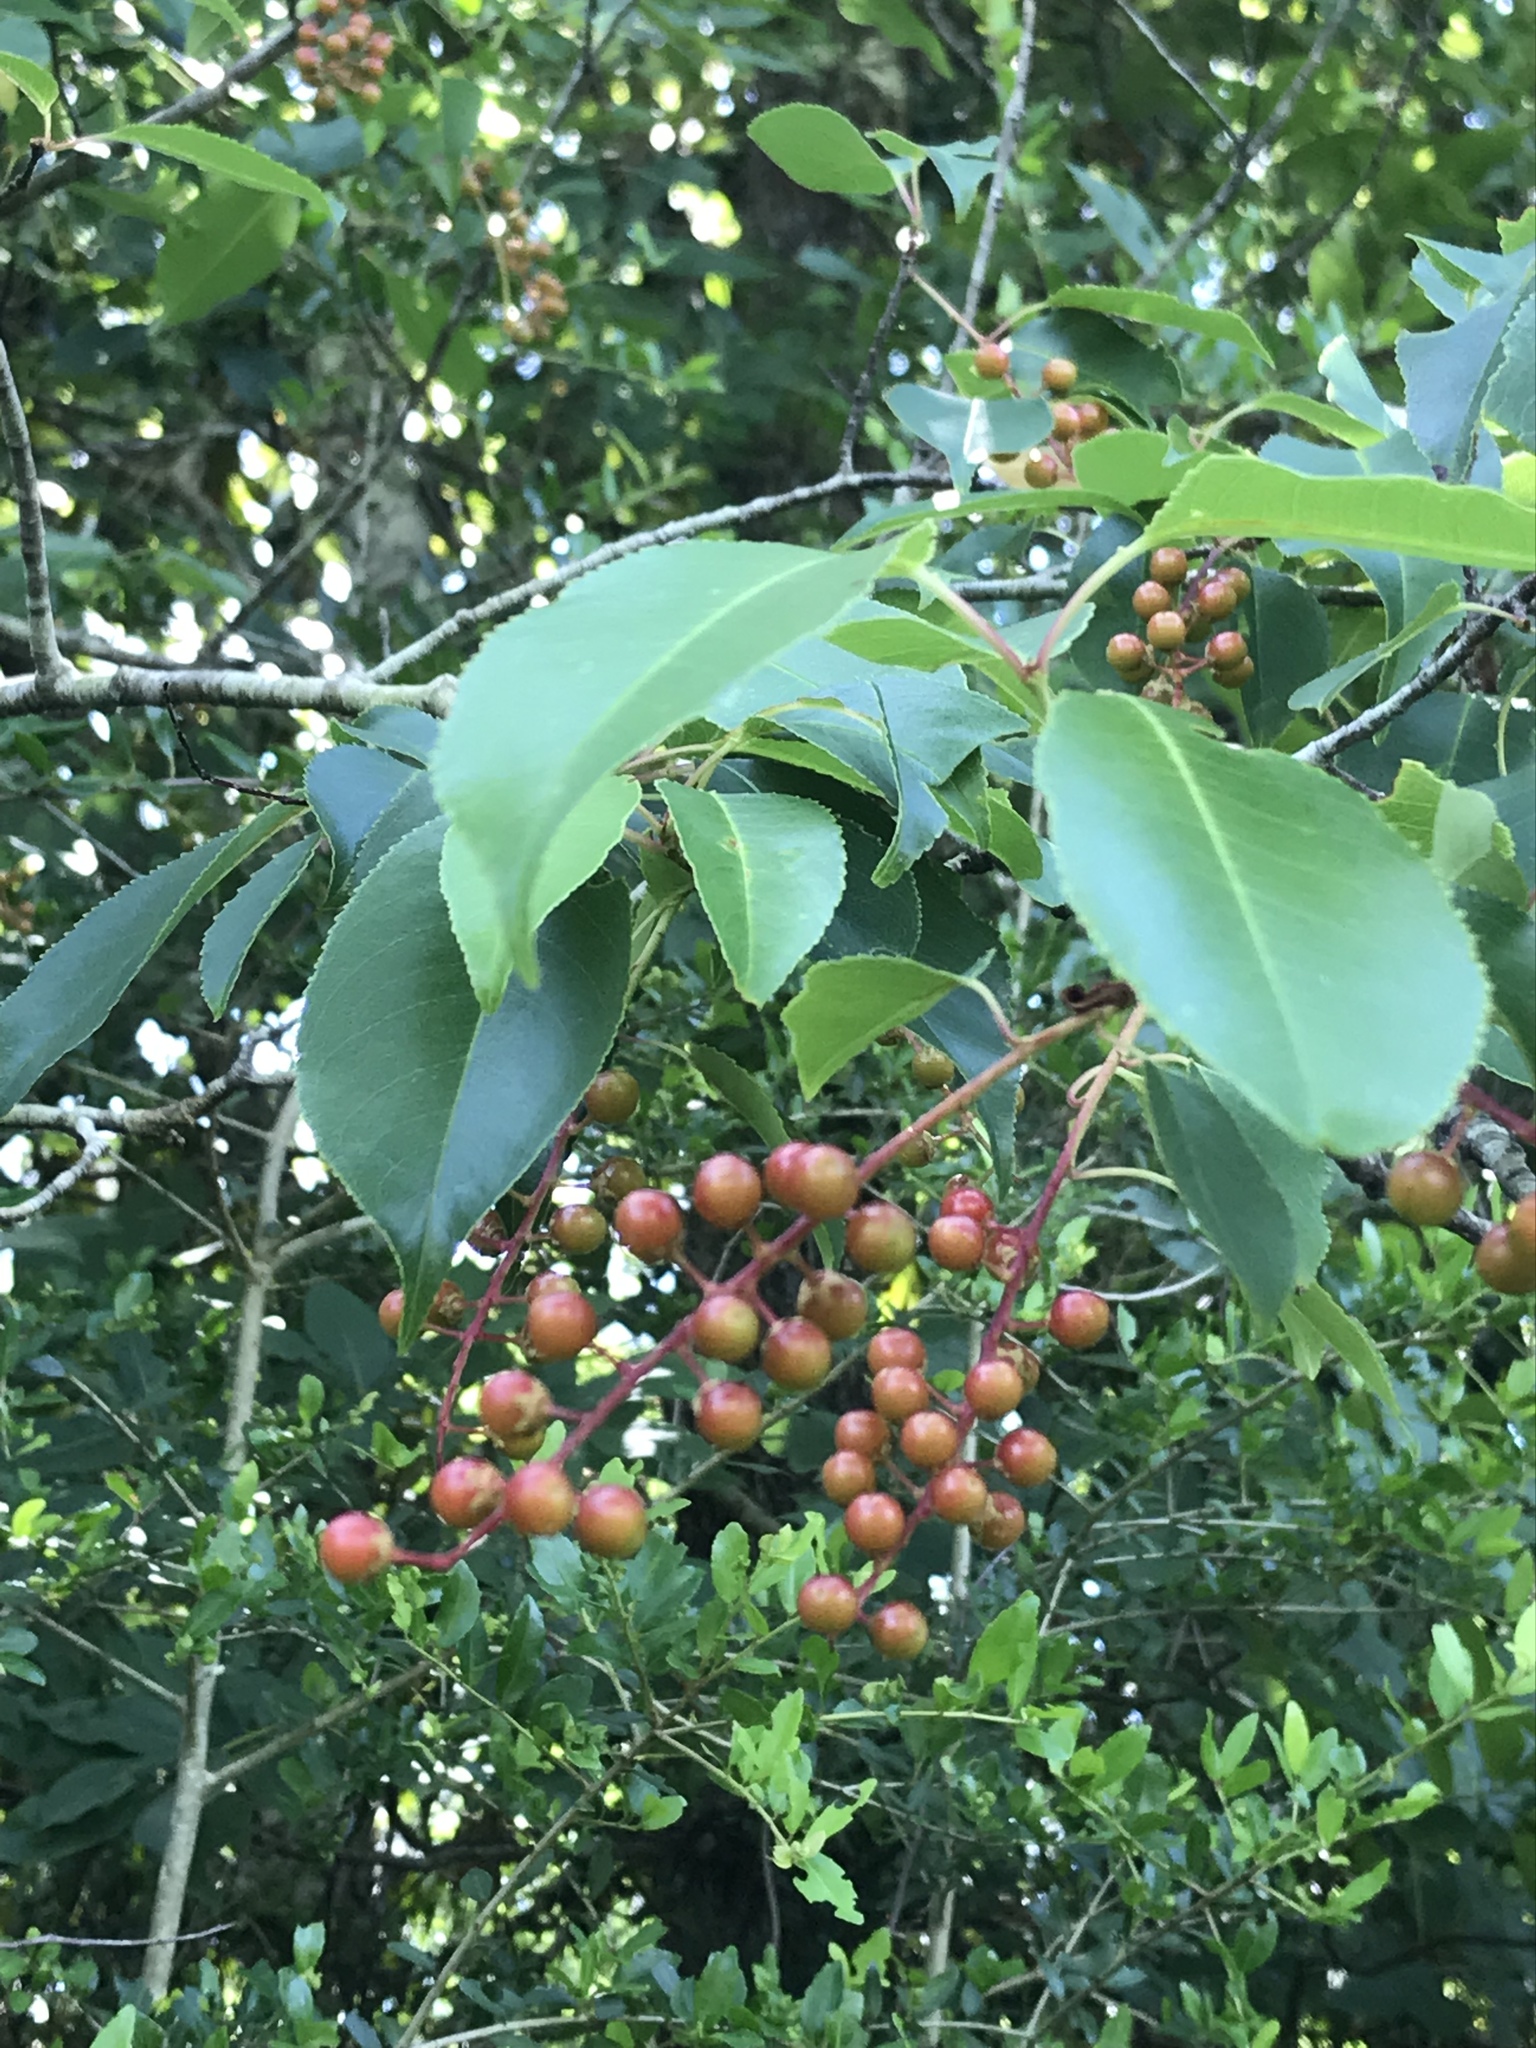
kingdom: Plantae
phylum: Tracheophyta
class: Magnoliopsida
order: Rosales
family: Rosaceae
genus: Prunus
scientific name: Prunus serotina
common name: Black cherry
